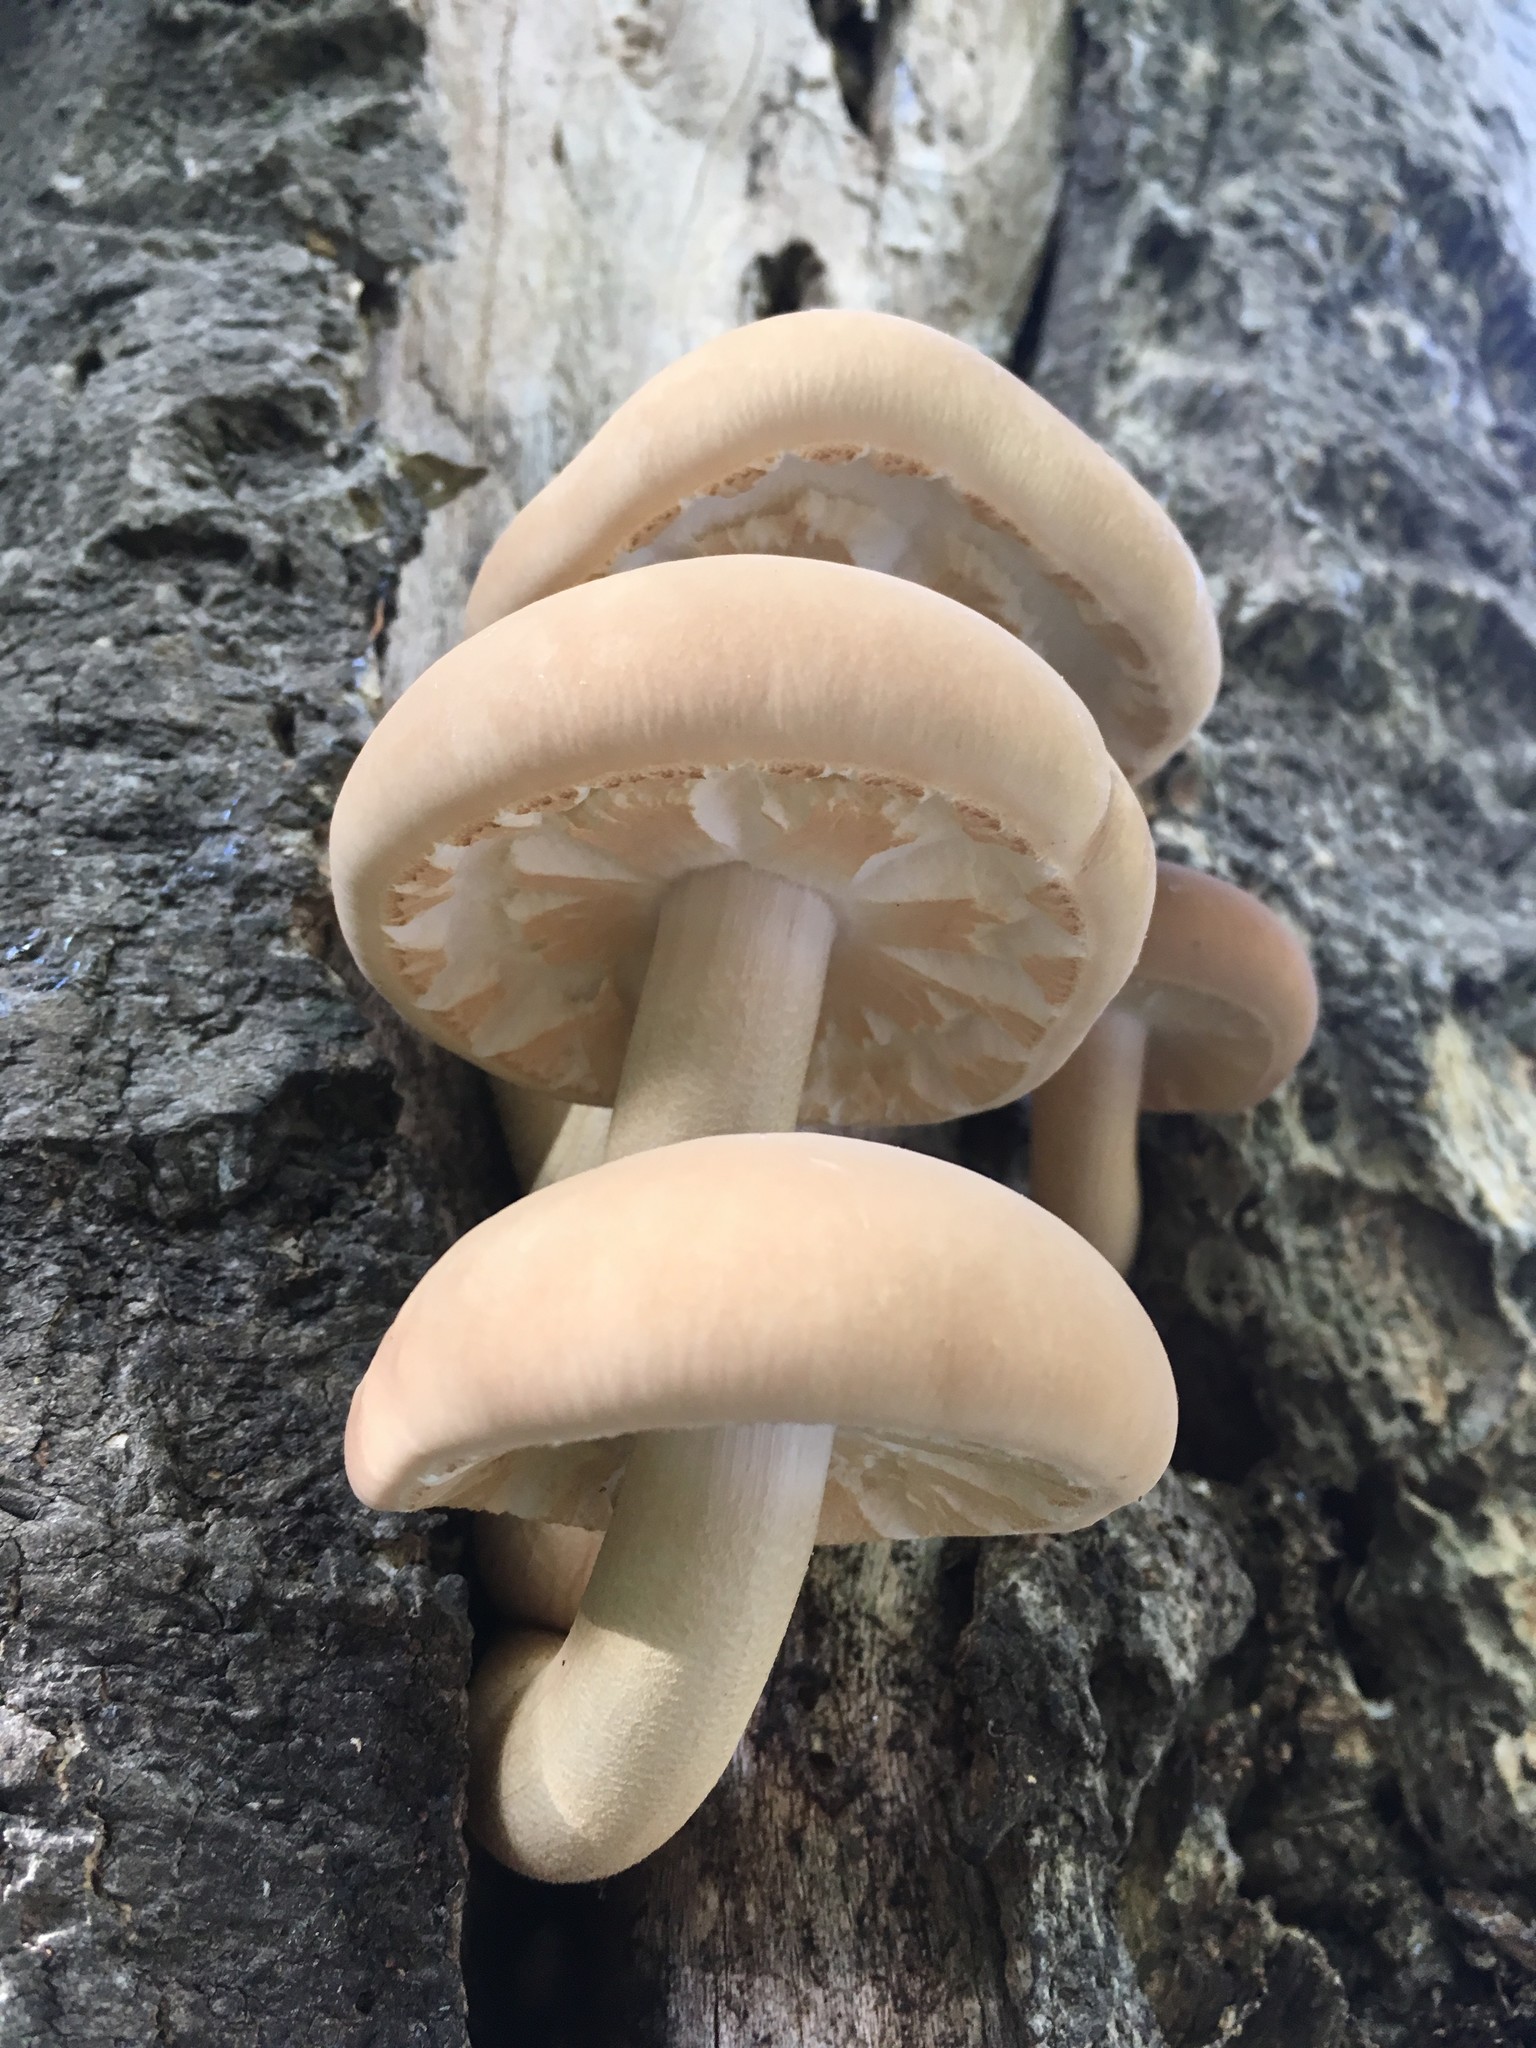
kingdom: Fungi
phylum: Basidiomycota
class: Agaricomycetes
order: Agaricales
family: Tubariaceae
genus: Cyclocybe
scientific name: Cyclocybe parasitica
